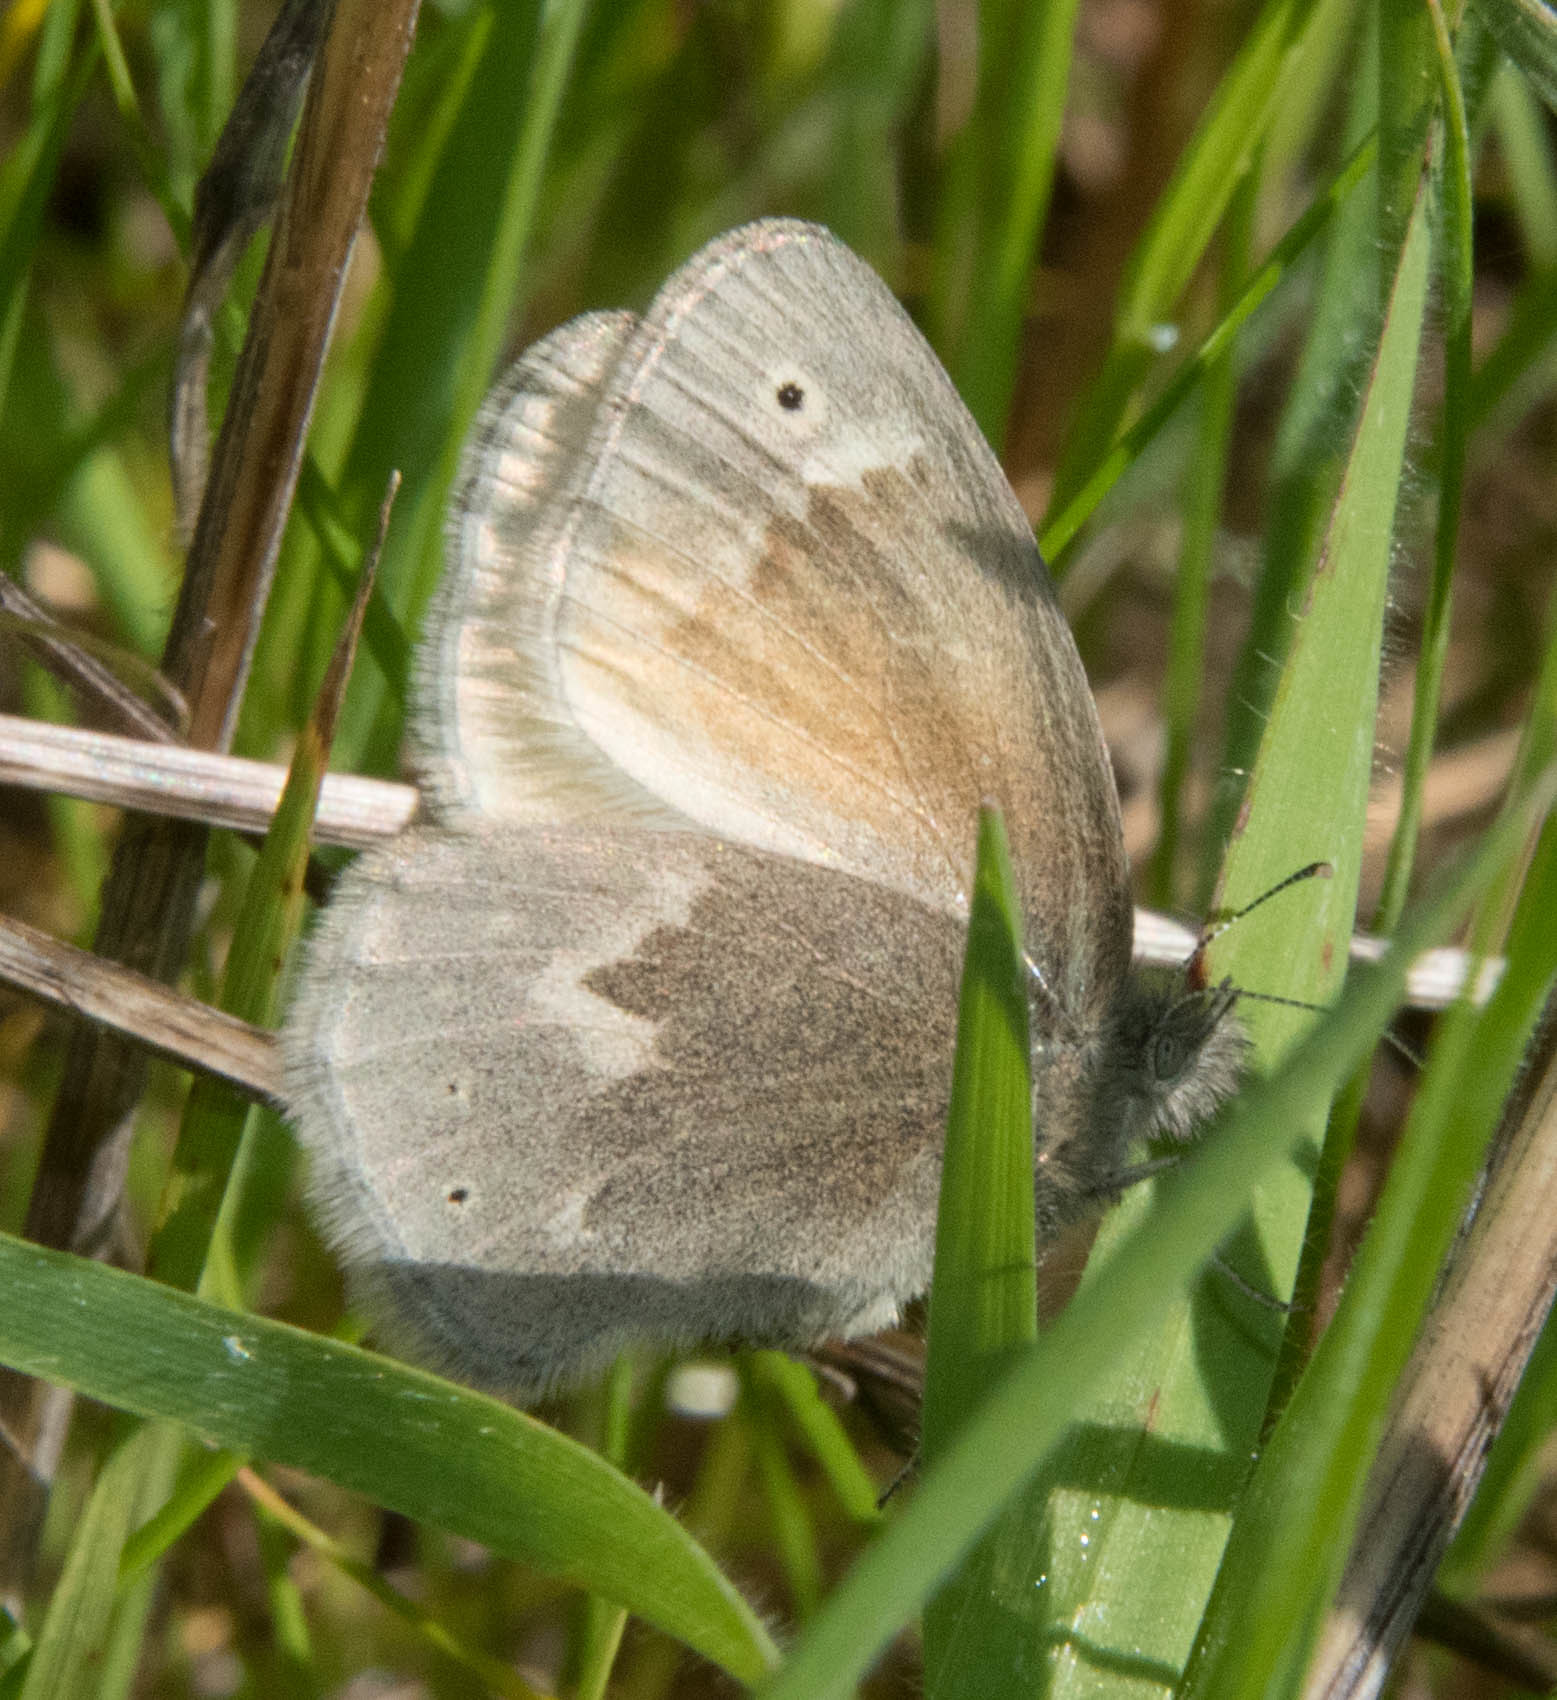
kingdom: Animalia
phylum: Arthropoda
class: Insecta
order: Lepidoptera
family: Nymphalidae
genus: Coenonympha
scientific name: Coenonympha california
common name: Common ringlet
